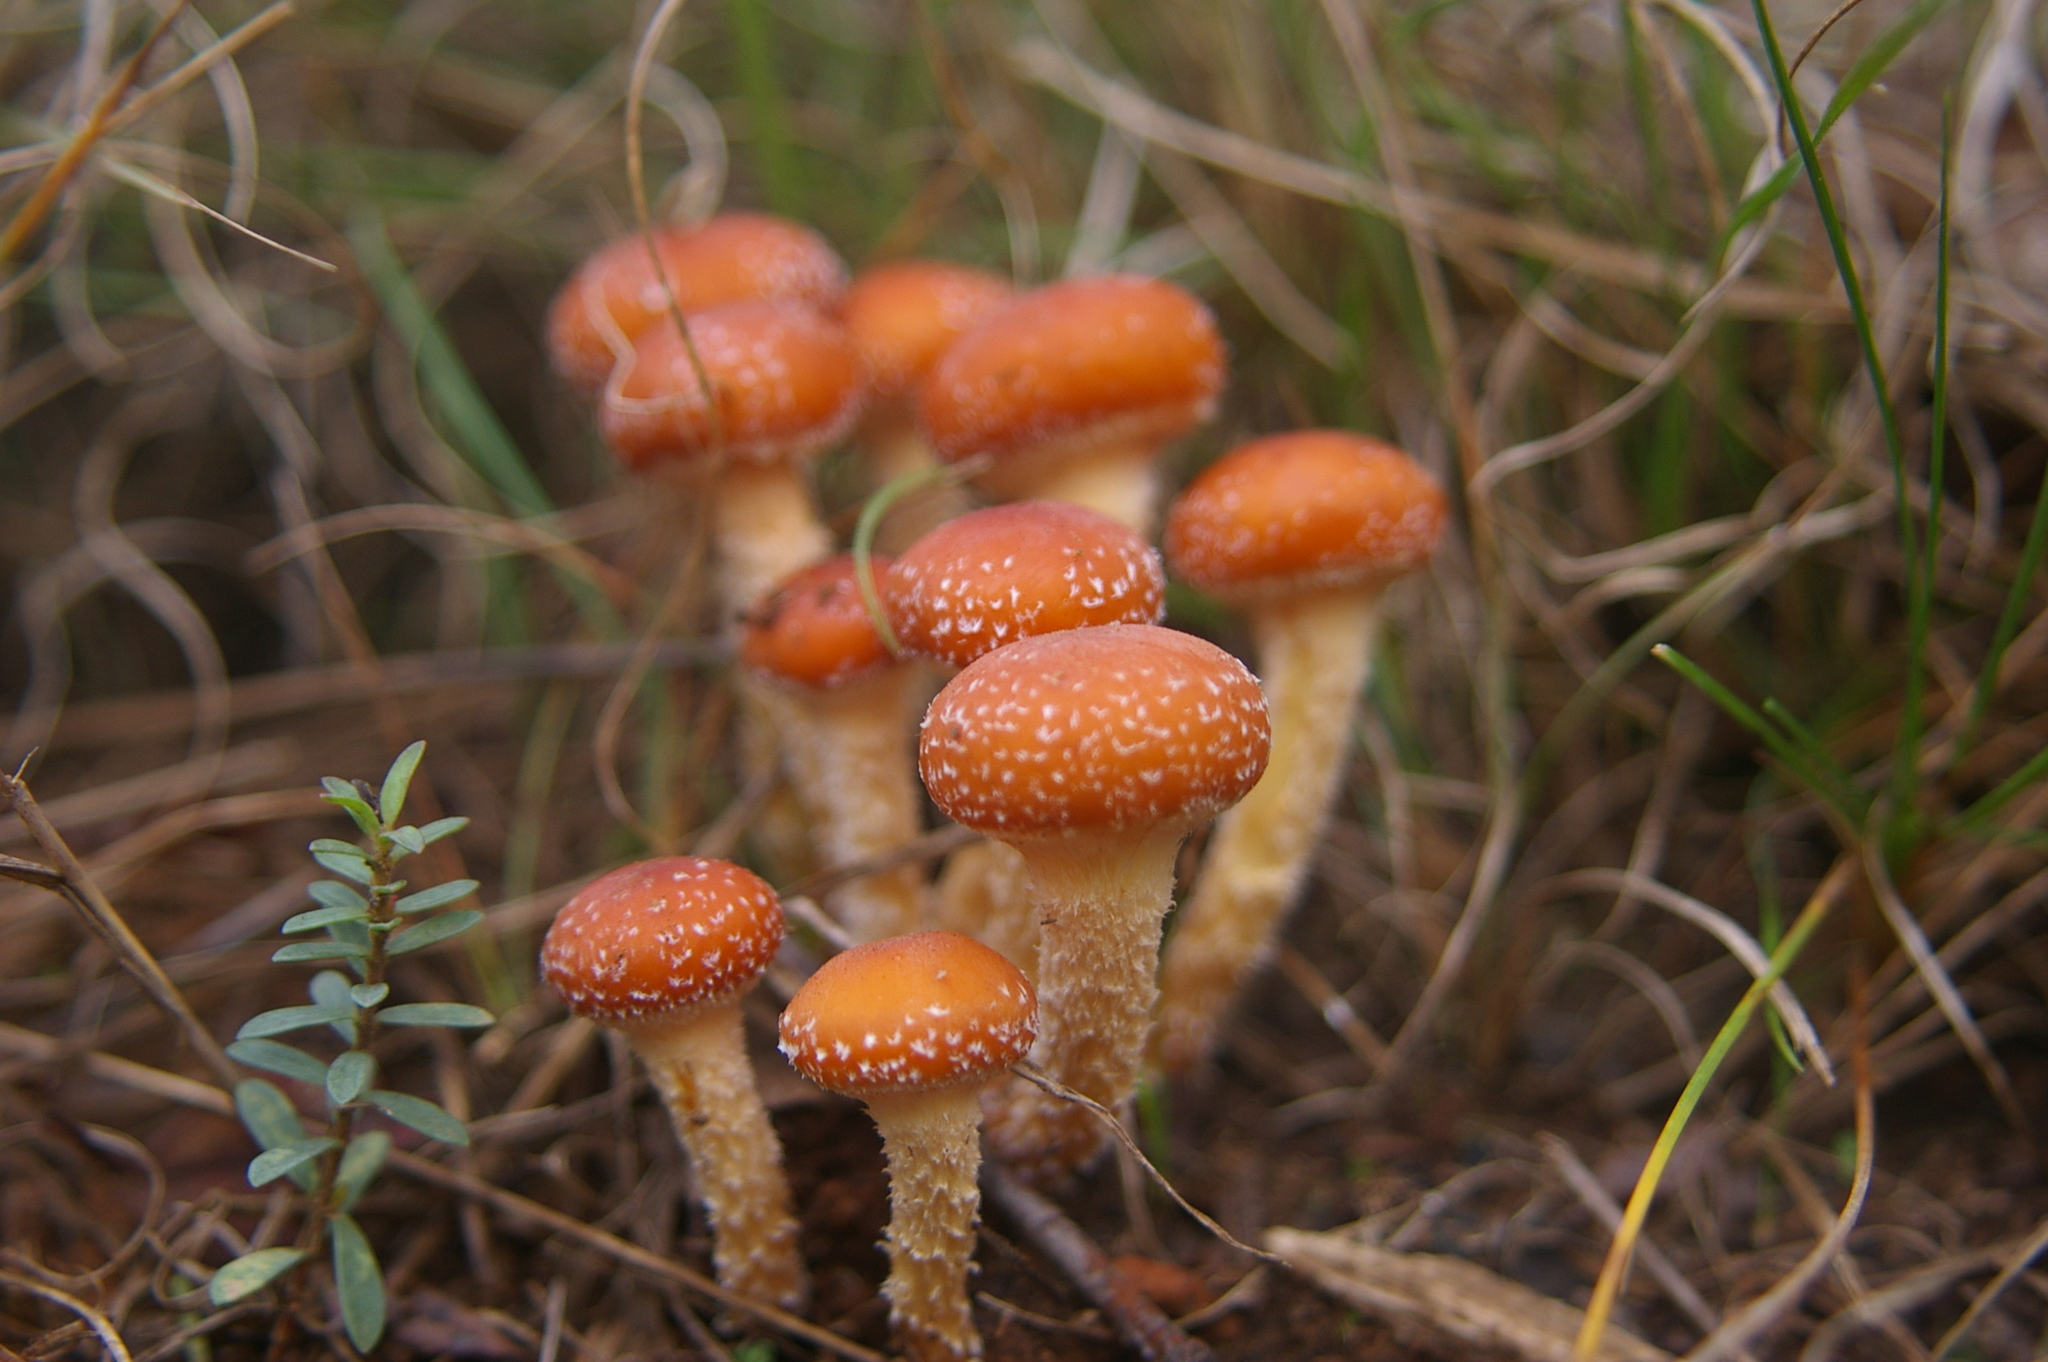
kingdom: Fungi
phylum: Basidiomycota
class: Agaricomycetes
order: Agaricales
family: Strophariaceae
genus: Hypholoma
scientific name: Hypholoma australianum
